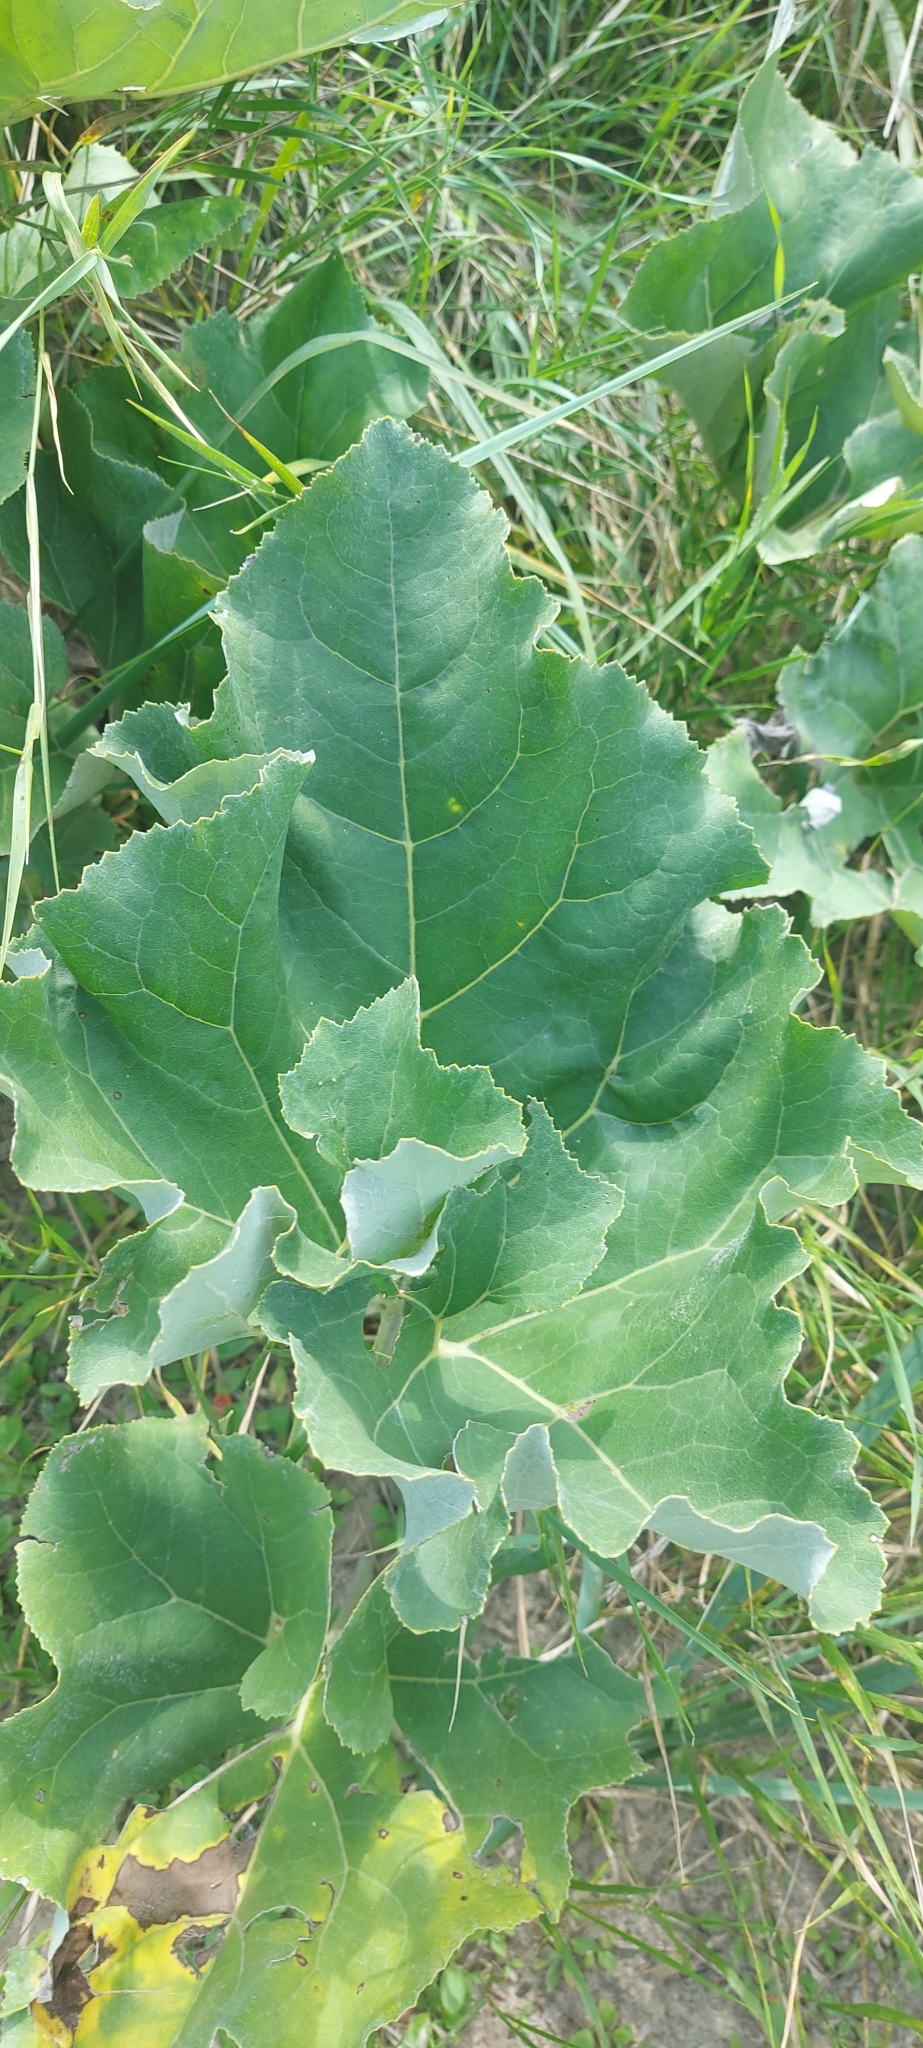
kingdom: Plantae
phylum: Tracheophyta
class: Magnoliopsida
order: Asterales
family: Asteraceae
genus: Petasites
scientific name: Petasites spurius
